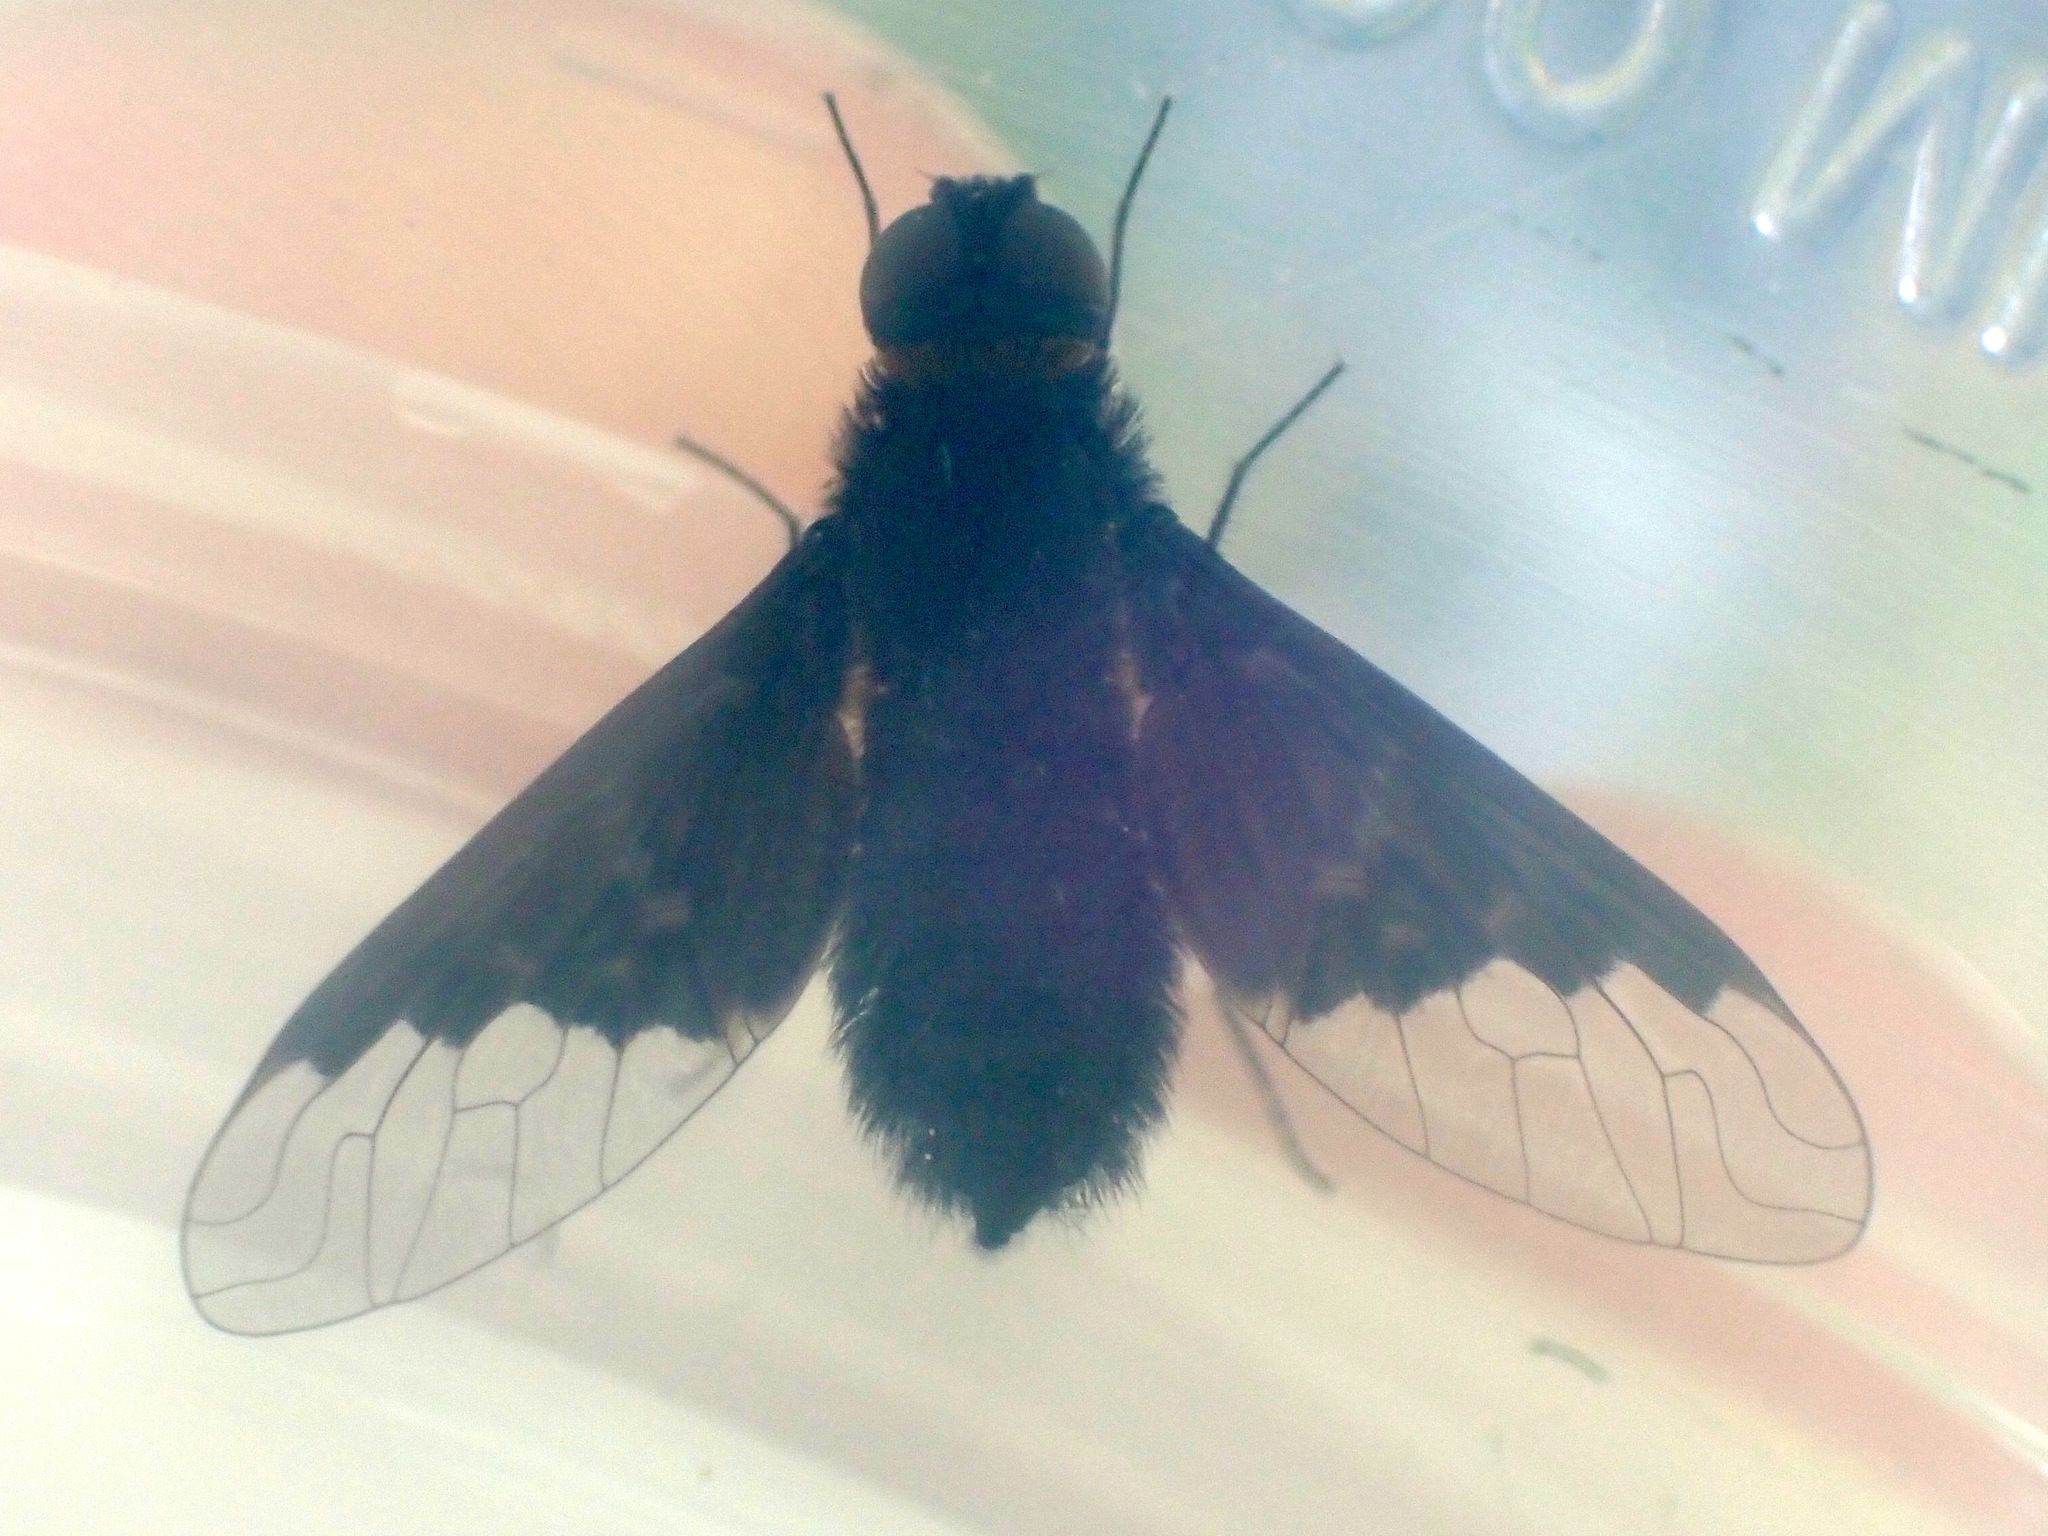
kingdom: Animalia
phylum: Arthropoda
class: Insecta
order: Diptera
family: Bombyliidae
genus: Hemipenthes
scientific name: Hemipenthes morio
